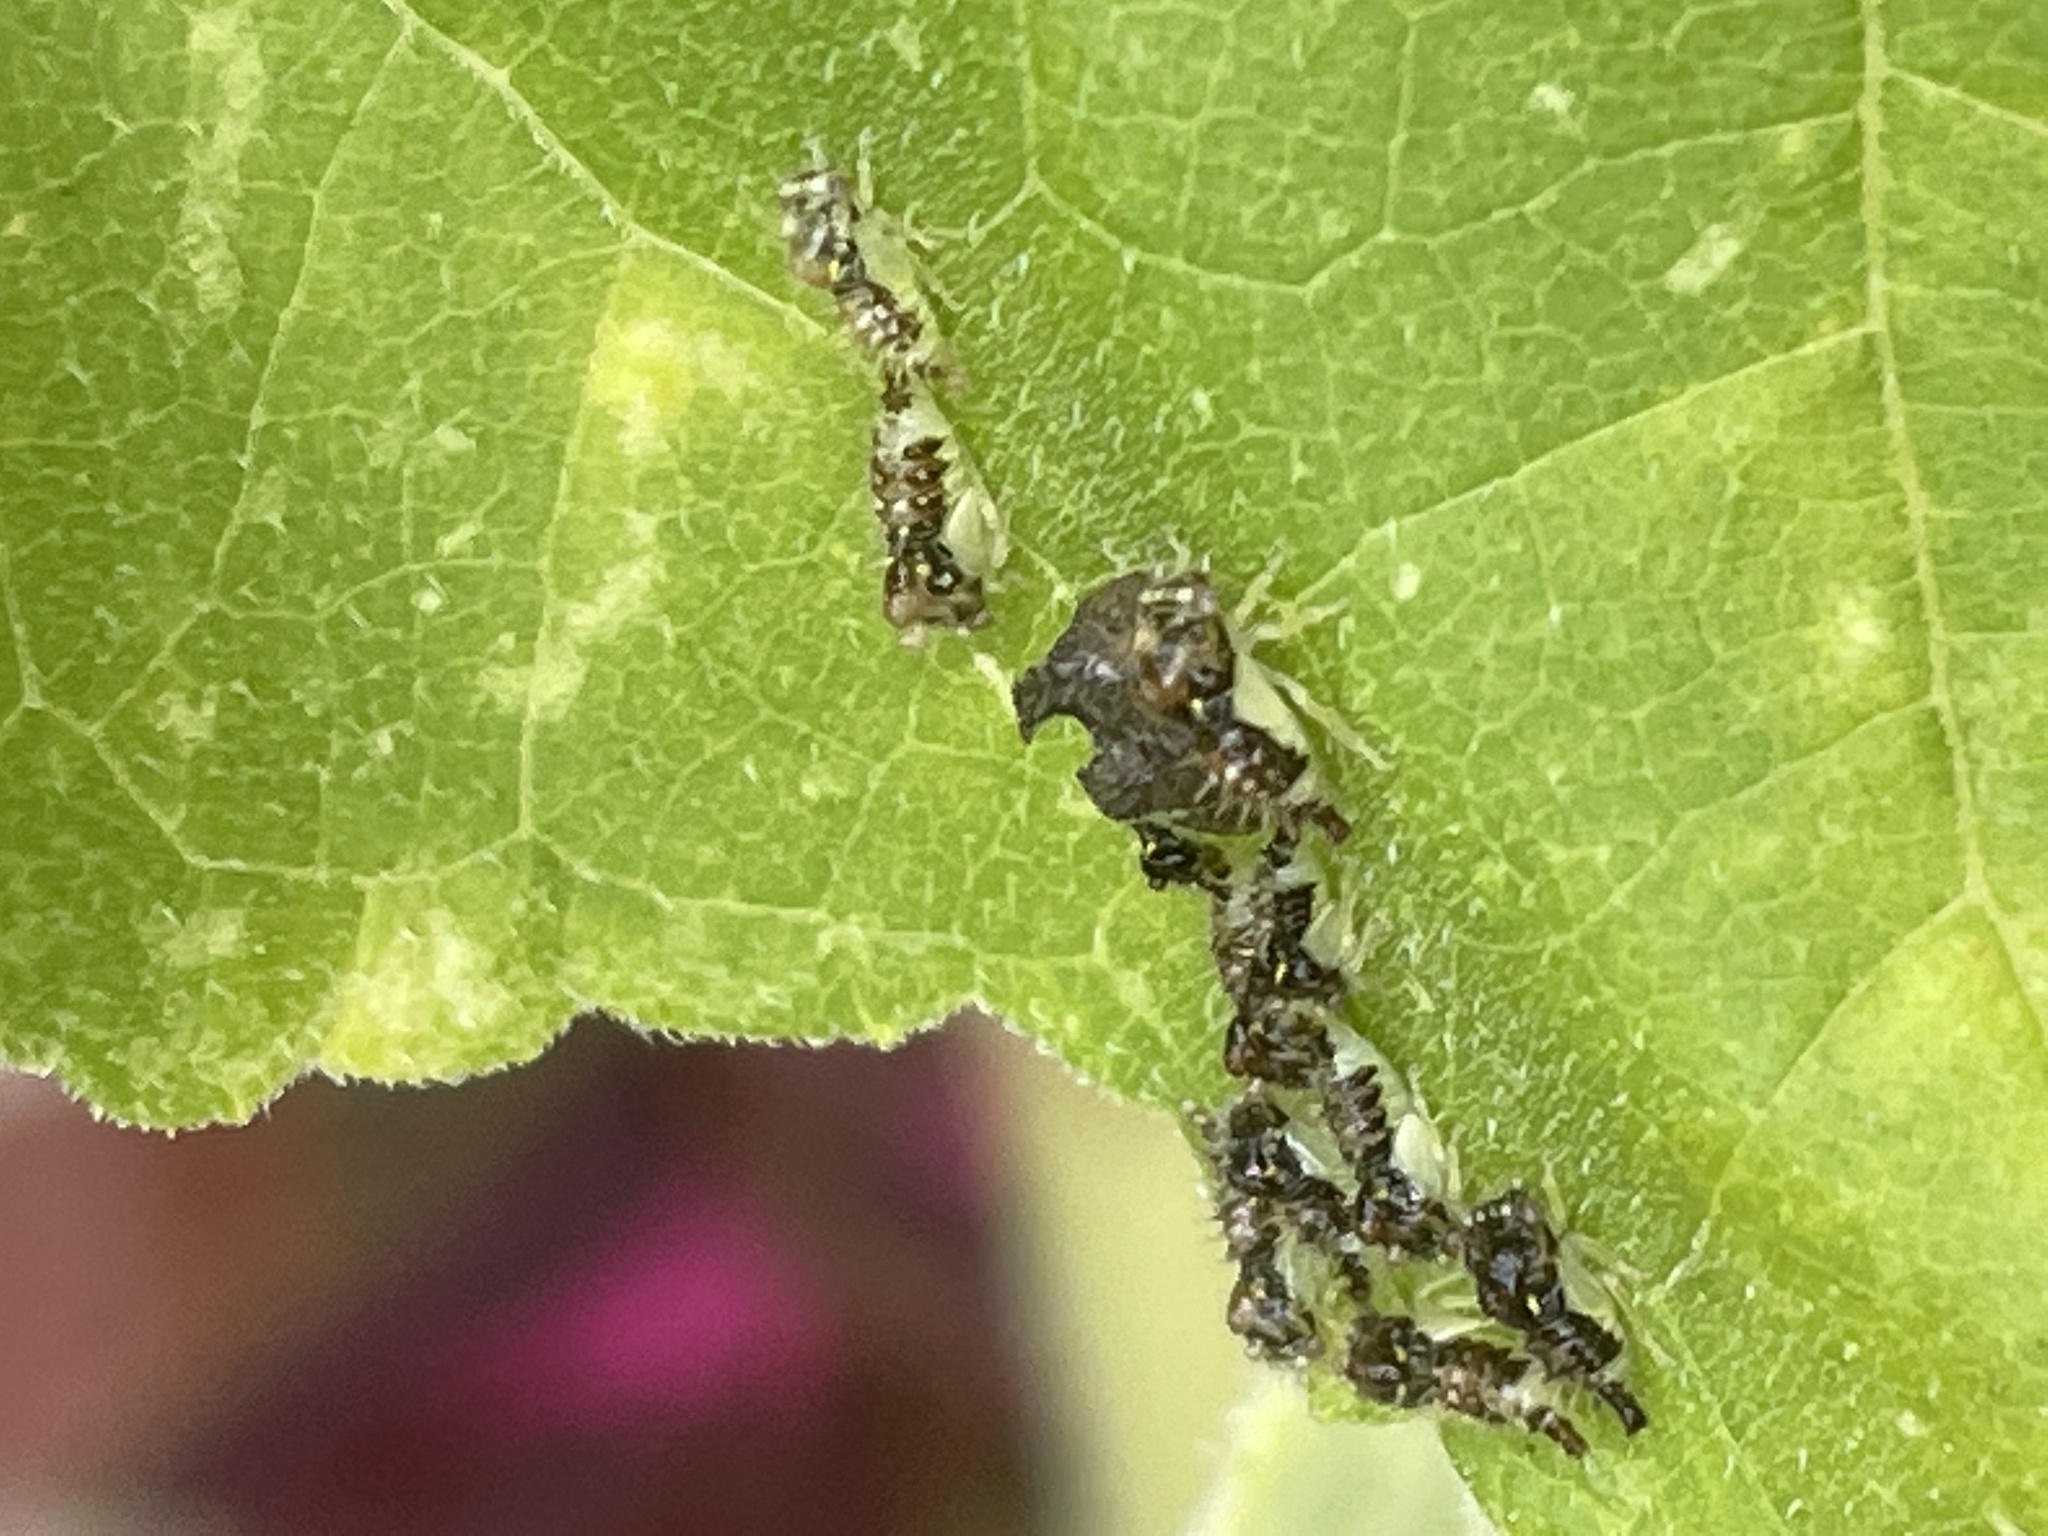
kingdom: Animalia
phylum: Arthropoda
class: Insecta
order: Hemiptera
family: Membracidae
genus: Entylia
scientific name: Entylia carinata
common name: Keeled treehopper
